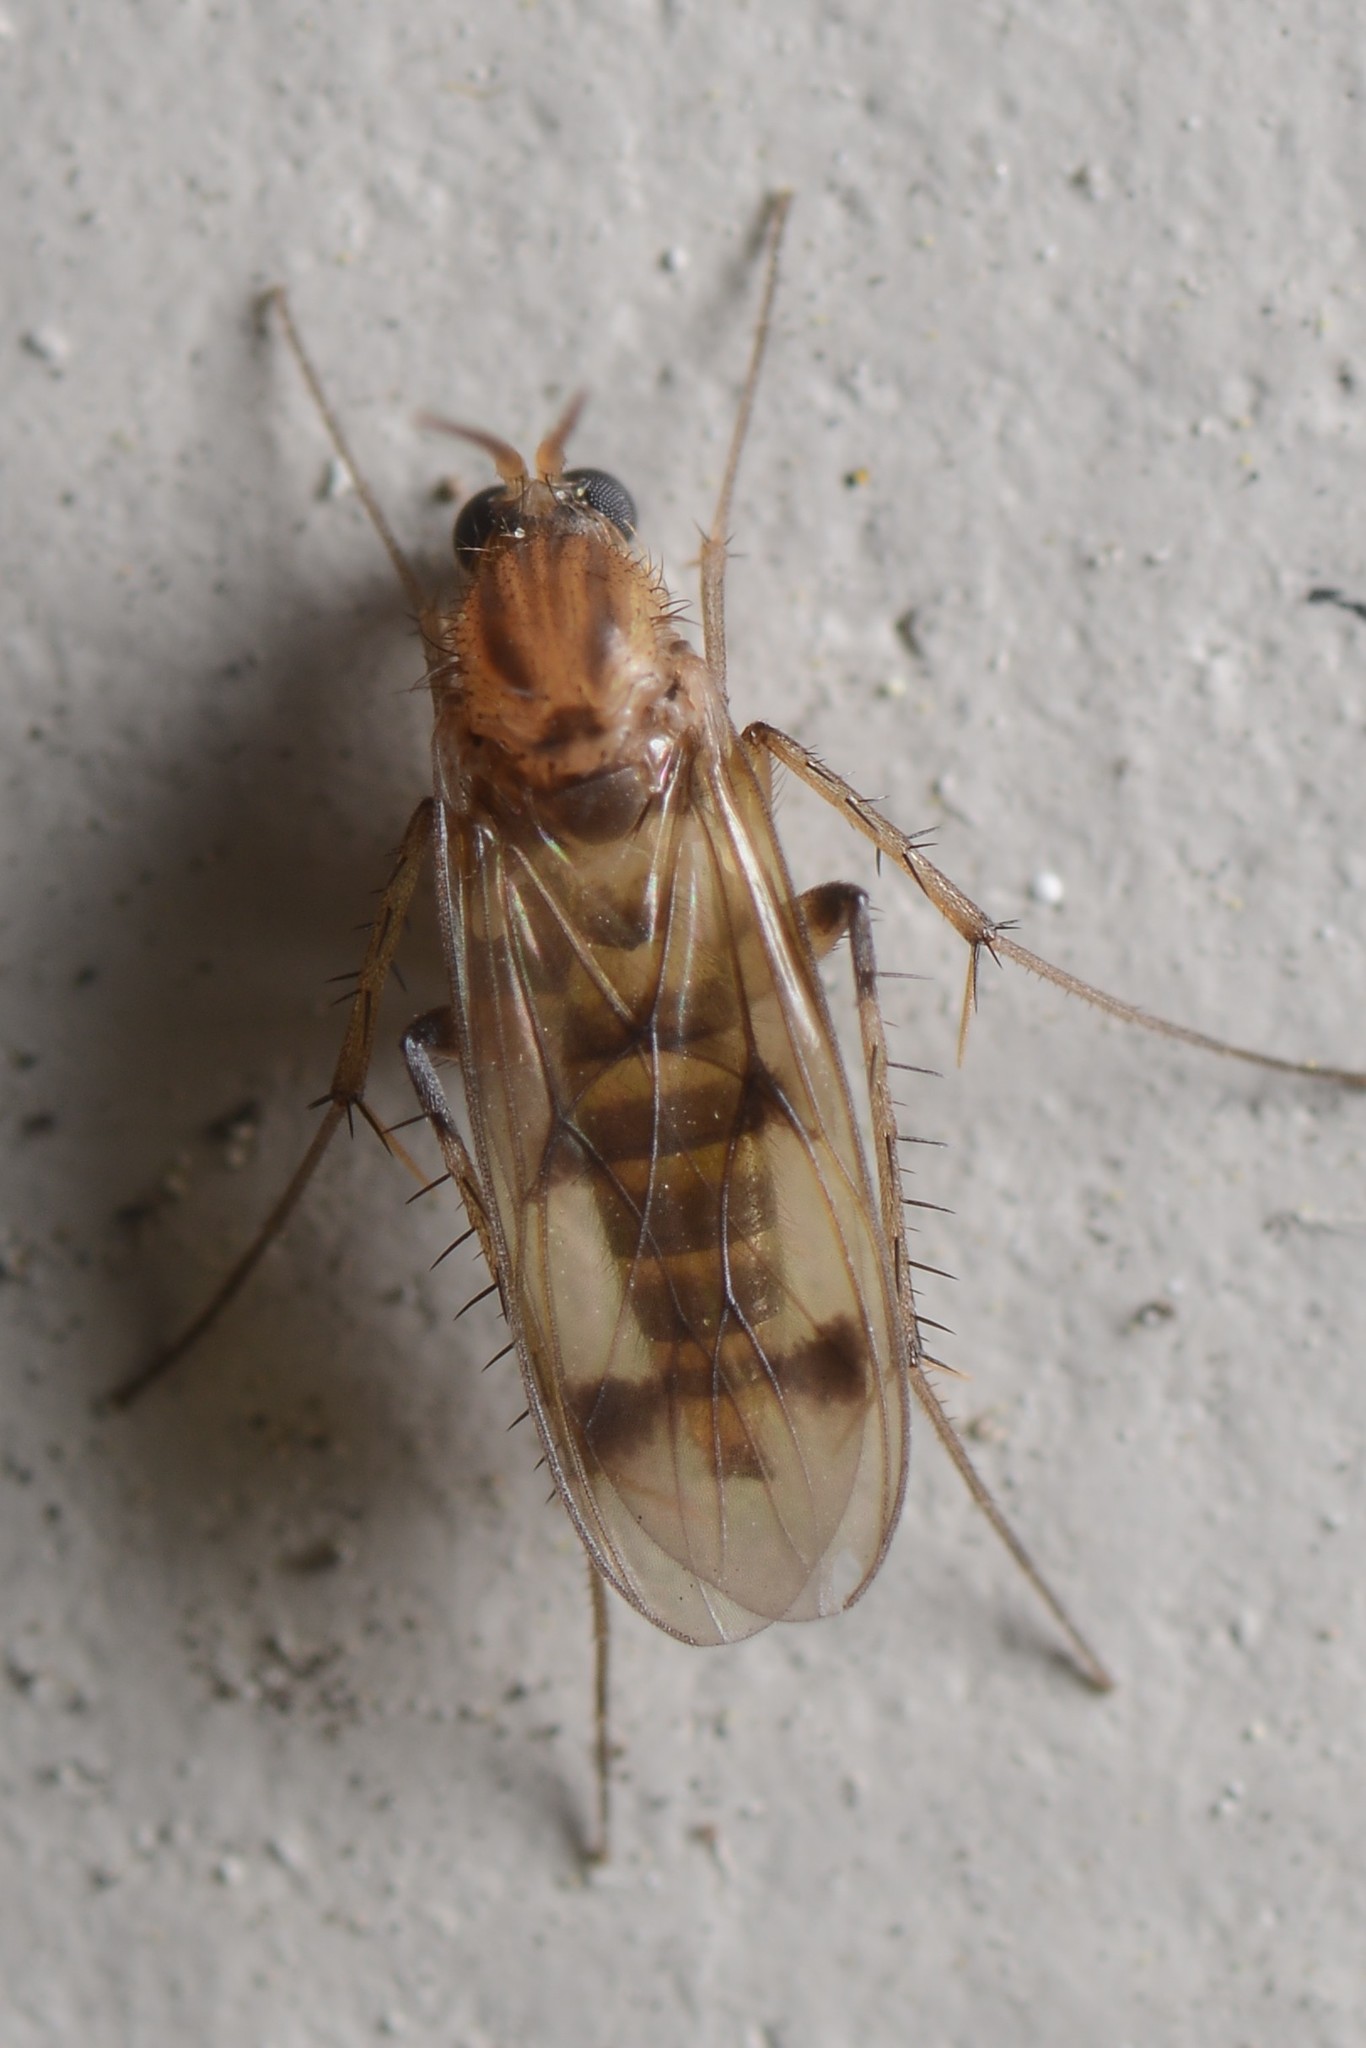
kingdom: Animalia
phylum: Arthropoda
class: Insecta
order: Diptera
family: Mycetophilidae
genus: Anomalomyia
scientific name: Anomalomyia guttata
